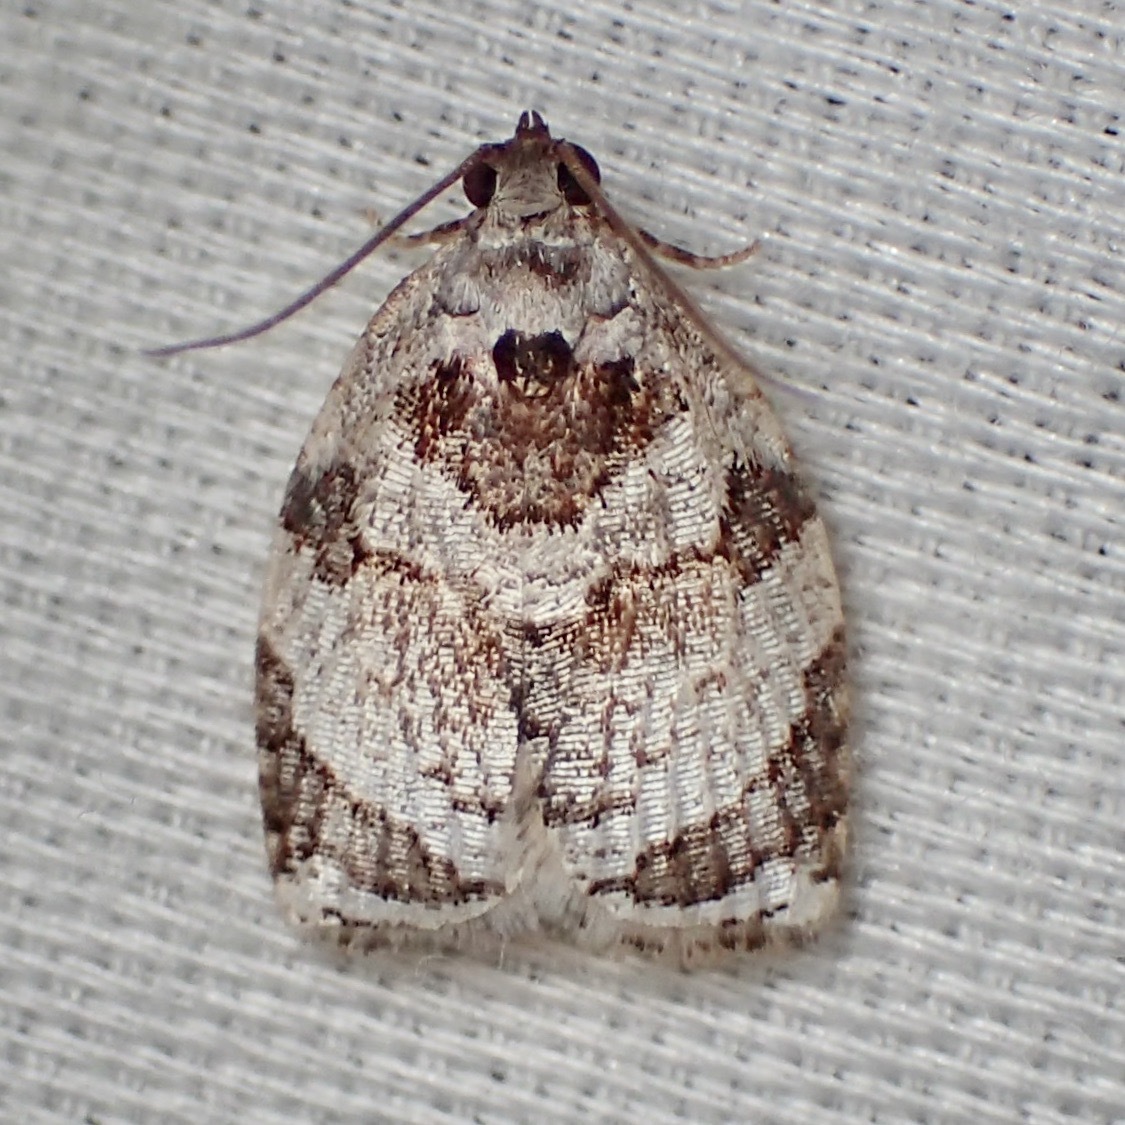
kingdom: Animalia
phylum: Arthropoda
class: Insecta
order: Lepidoptera
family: Tortricidae
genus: Adoxophyes
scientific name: Adoxophyes tripselia
